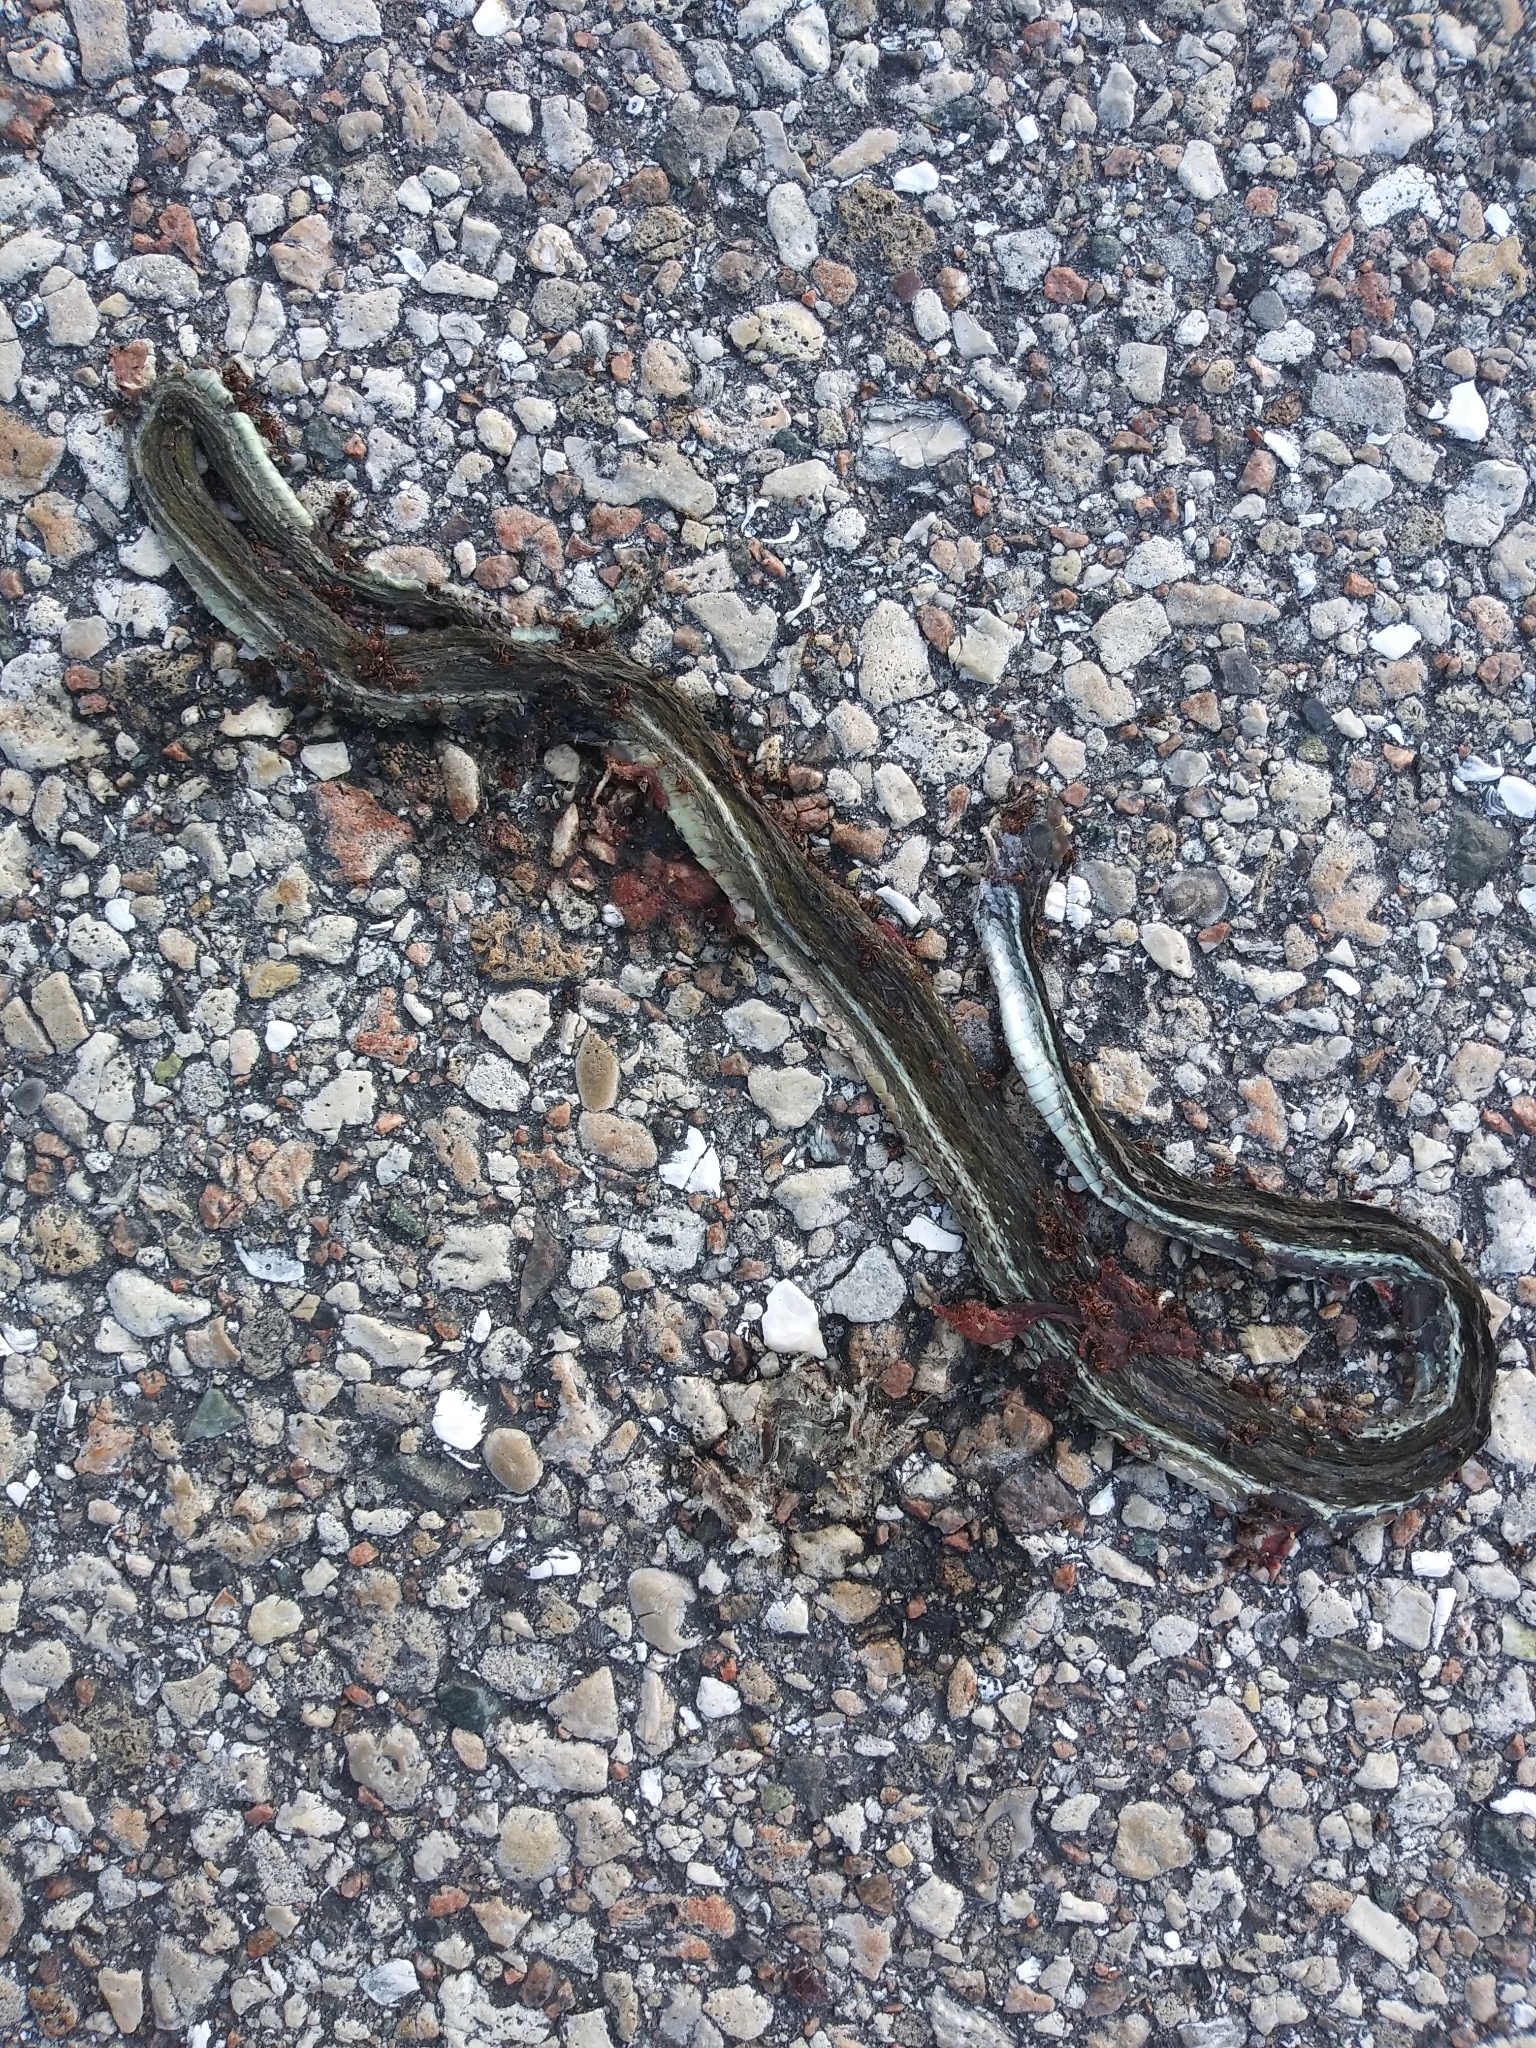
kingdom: Animalia
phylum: Chordata
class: Squamata
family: Colubridae
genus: Thamnophis
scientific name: Thamnophis saurita
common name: Eastern ribbonsnake
